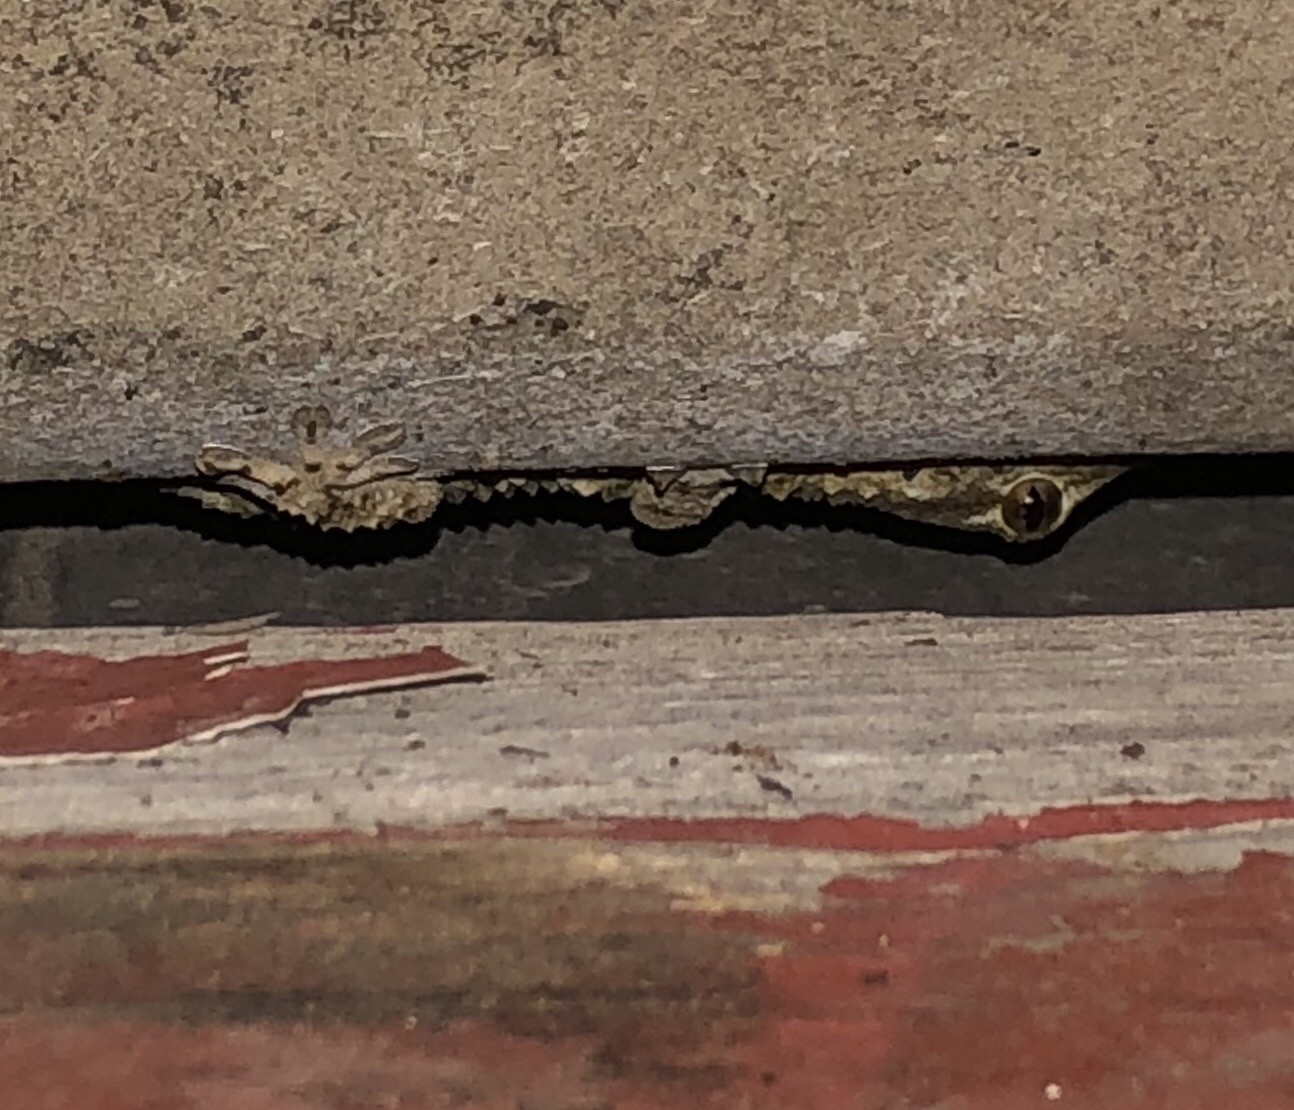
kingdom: Animalia
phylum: Chordata
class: Squamata
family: Phyllodactylidae
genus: Tarentola
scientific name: Tarentola mauritanica
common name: Moorish gecko
